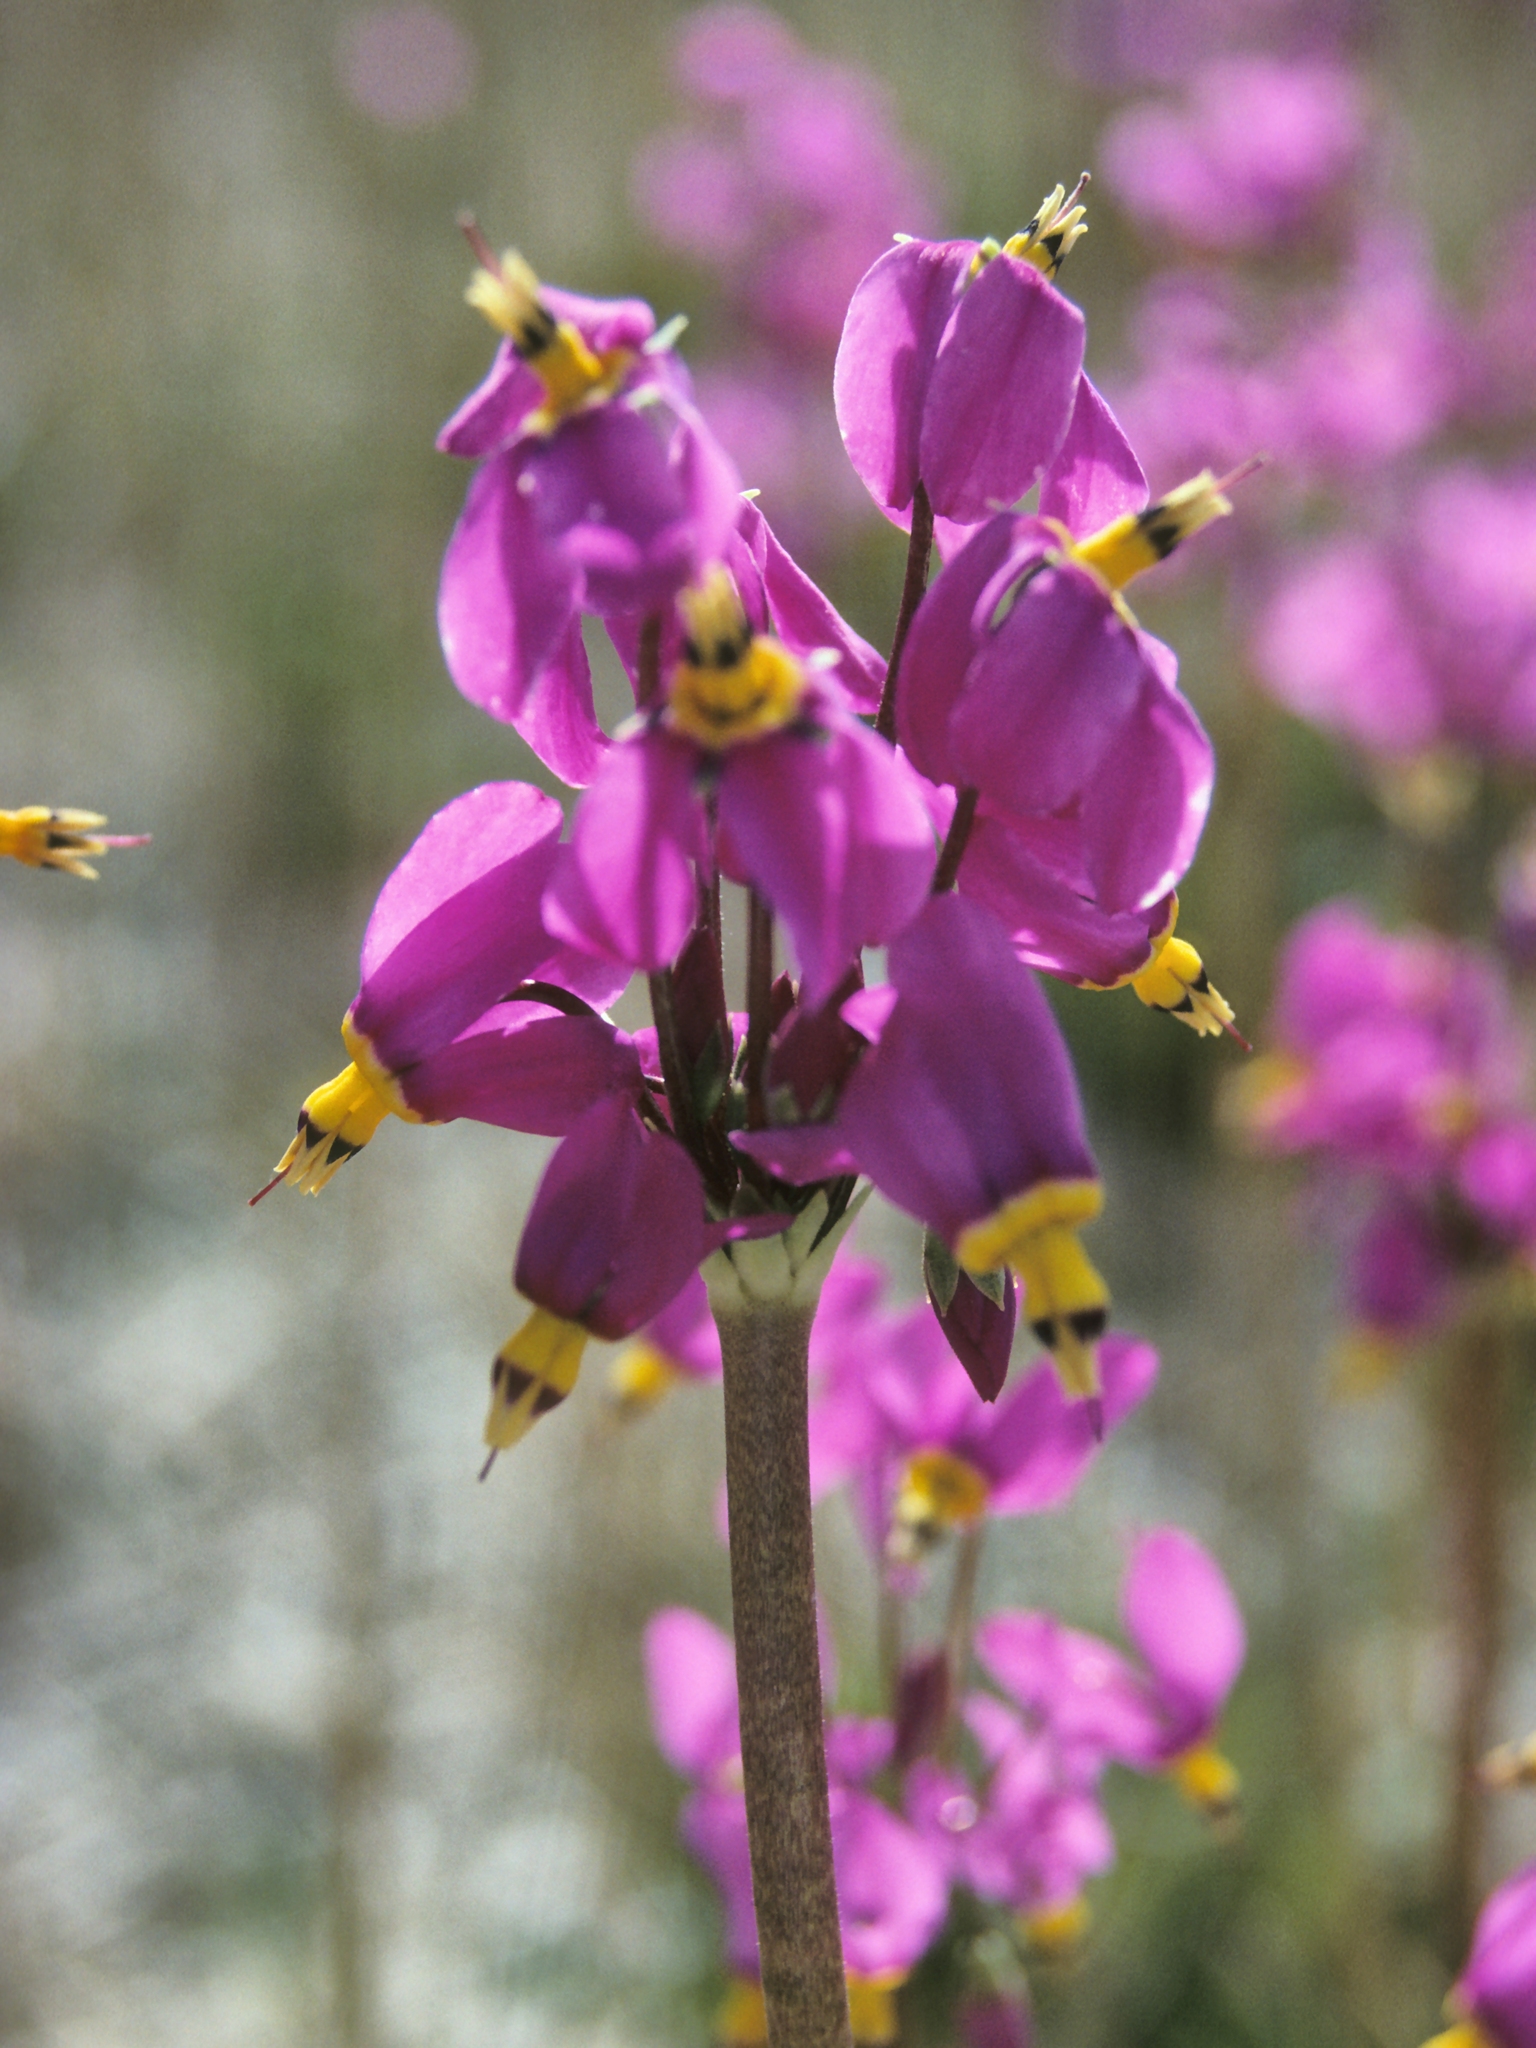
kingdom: Plantae
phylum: Tracheophyta
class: Magnoliopsida
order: Ericales
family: Primulaceae
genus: Dodecatheon
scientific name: Dodecatheon pulchellum
